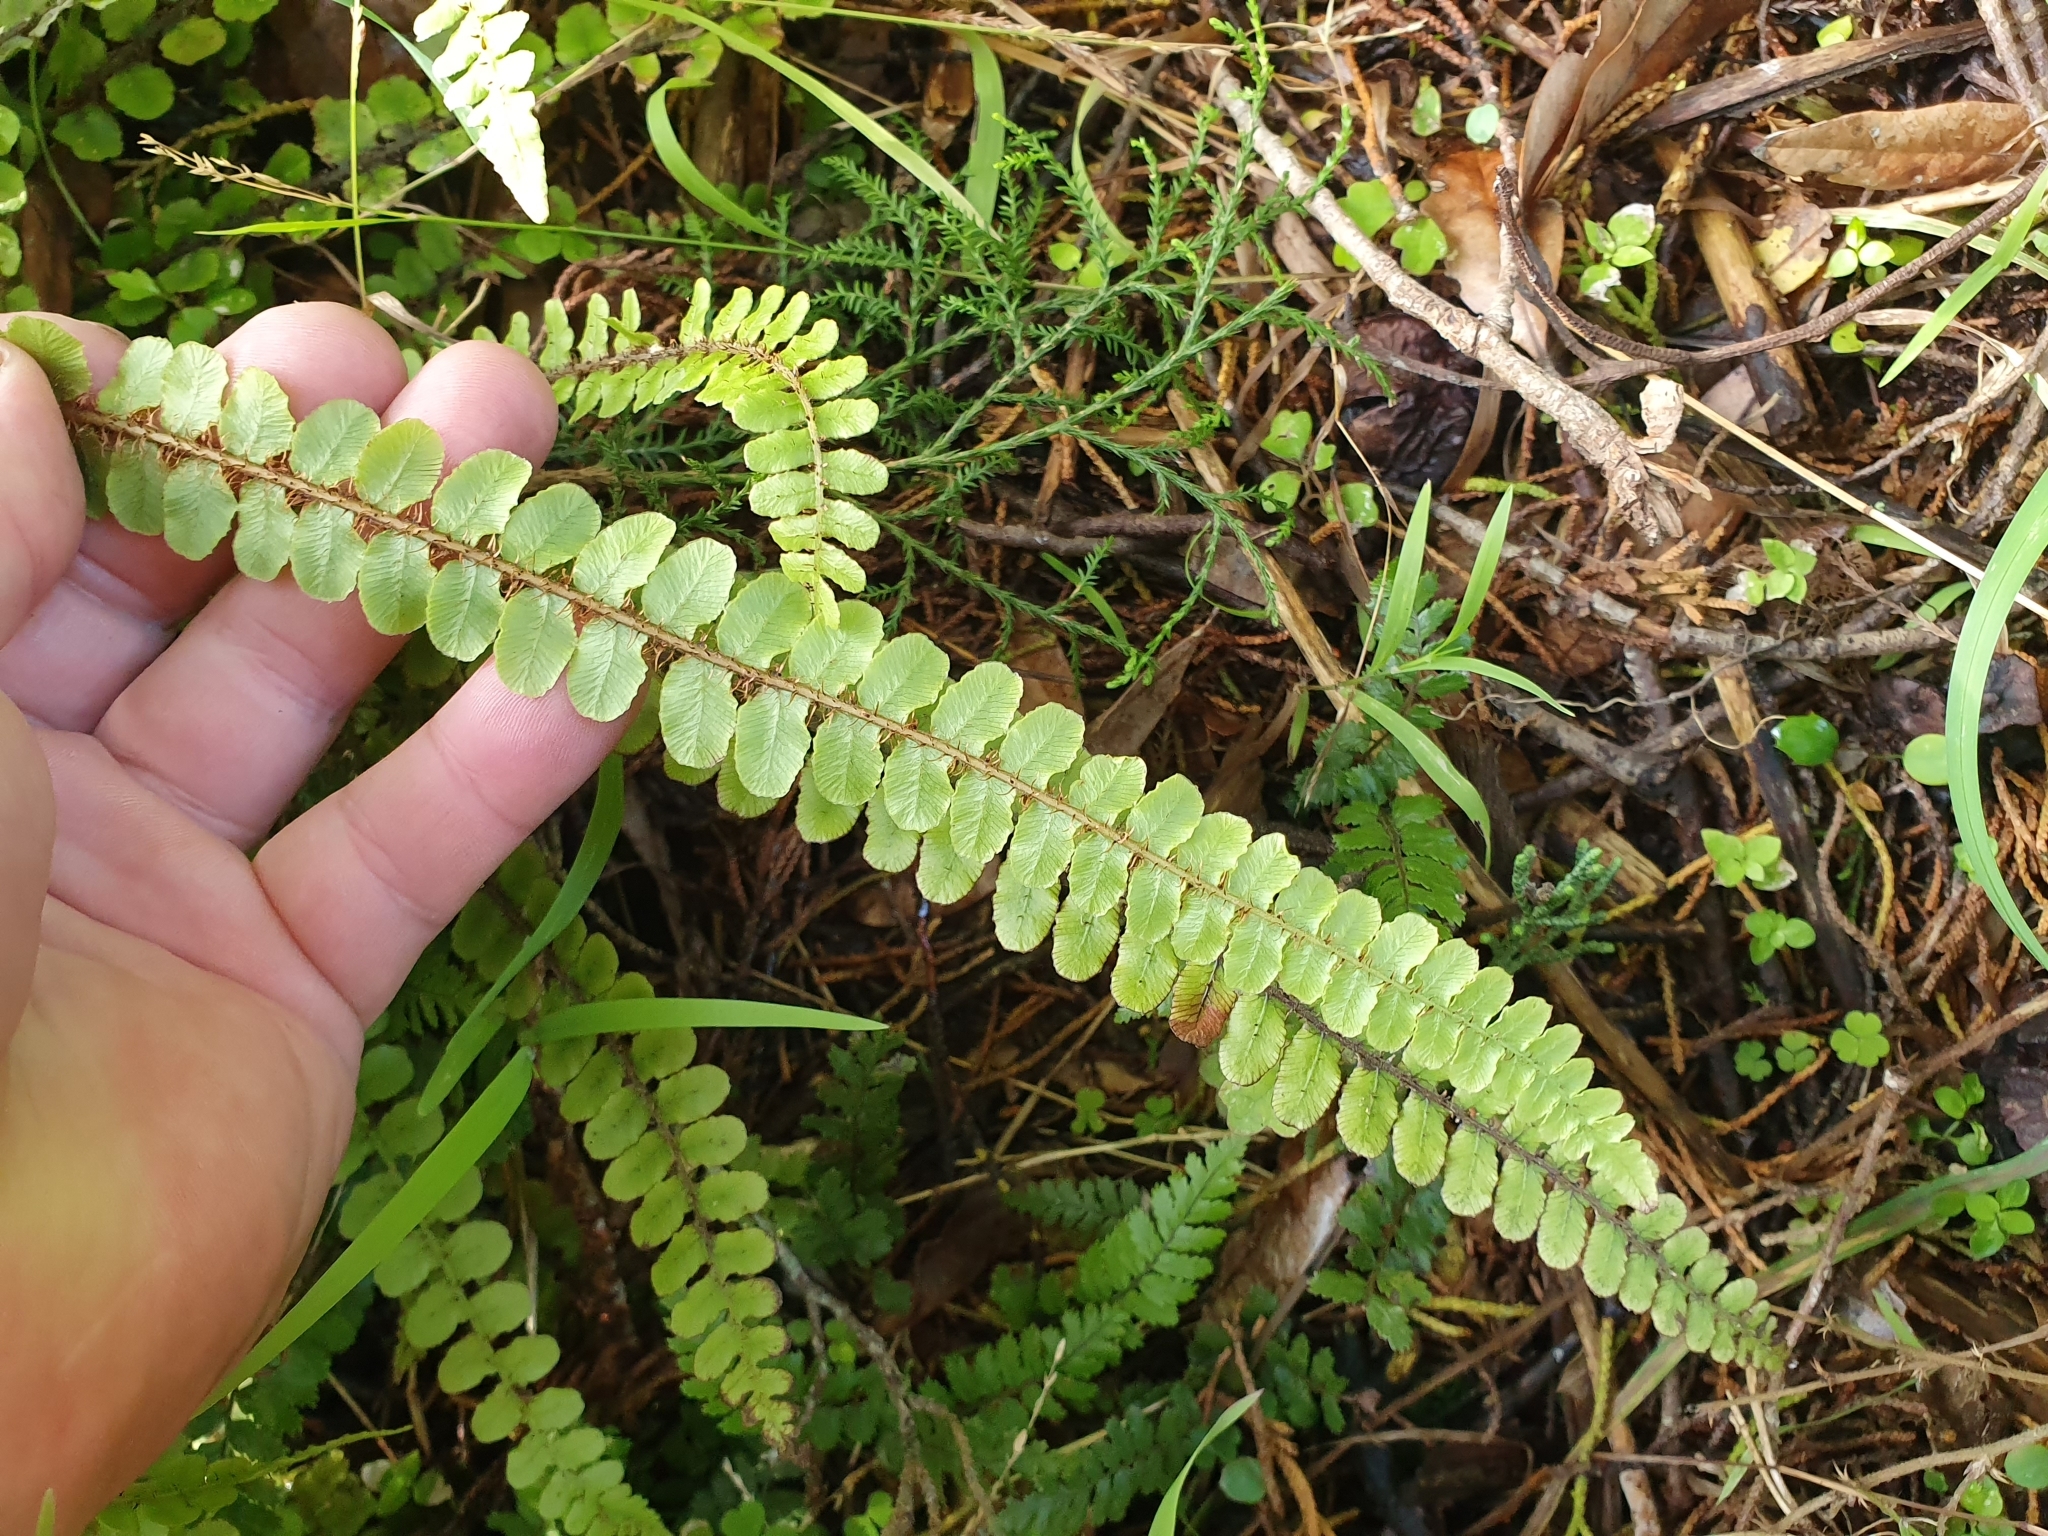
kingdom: Plantae
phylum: Tracheophyta
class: Polypodiopsida
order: Polypodiales
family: Blechnaceae
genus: Cranfillia
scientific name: Cranfillia fluviatilis
